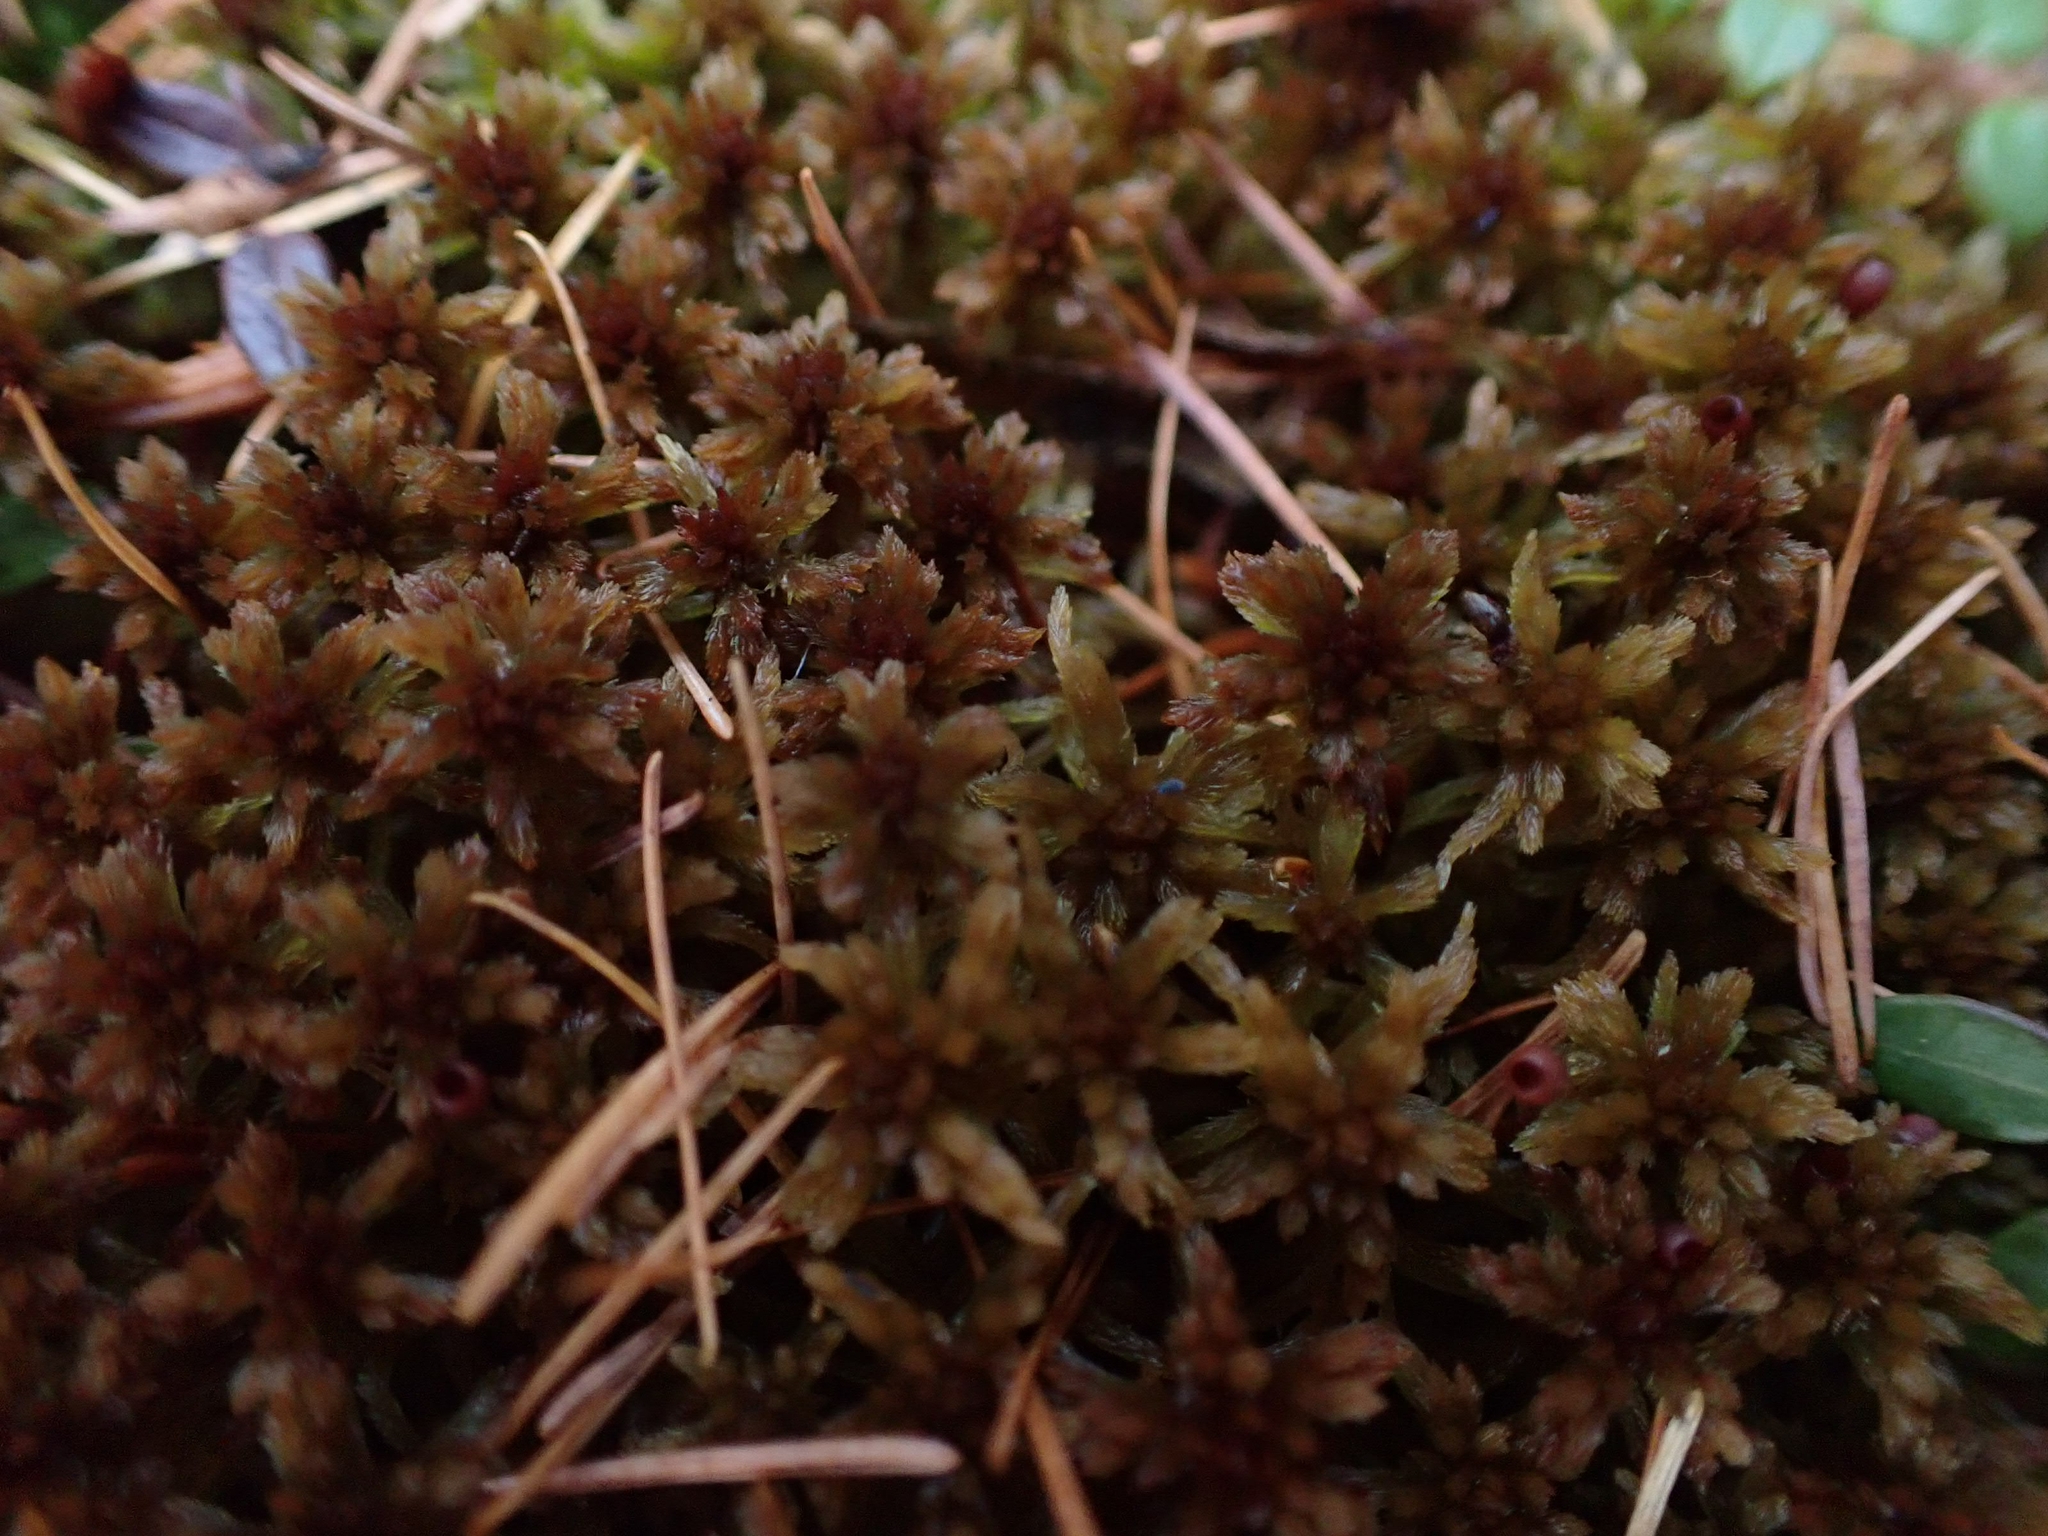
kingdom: Plantae
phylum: Bryophyta
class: Sphagnopsida
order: Sphagnales
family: Sphagnaceae
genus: Sphagnum
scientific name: Sphagnum fuscum
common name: Brown peat moss
